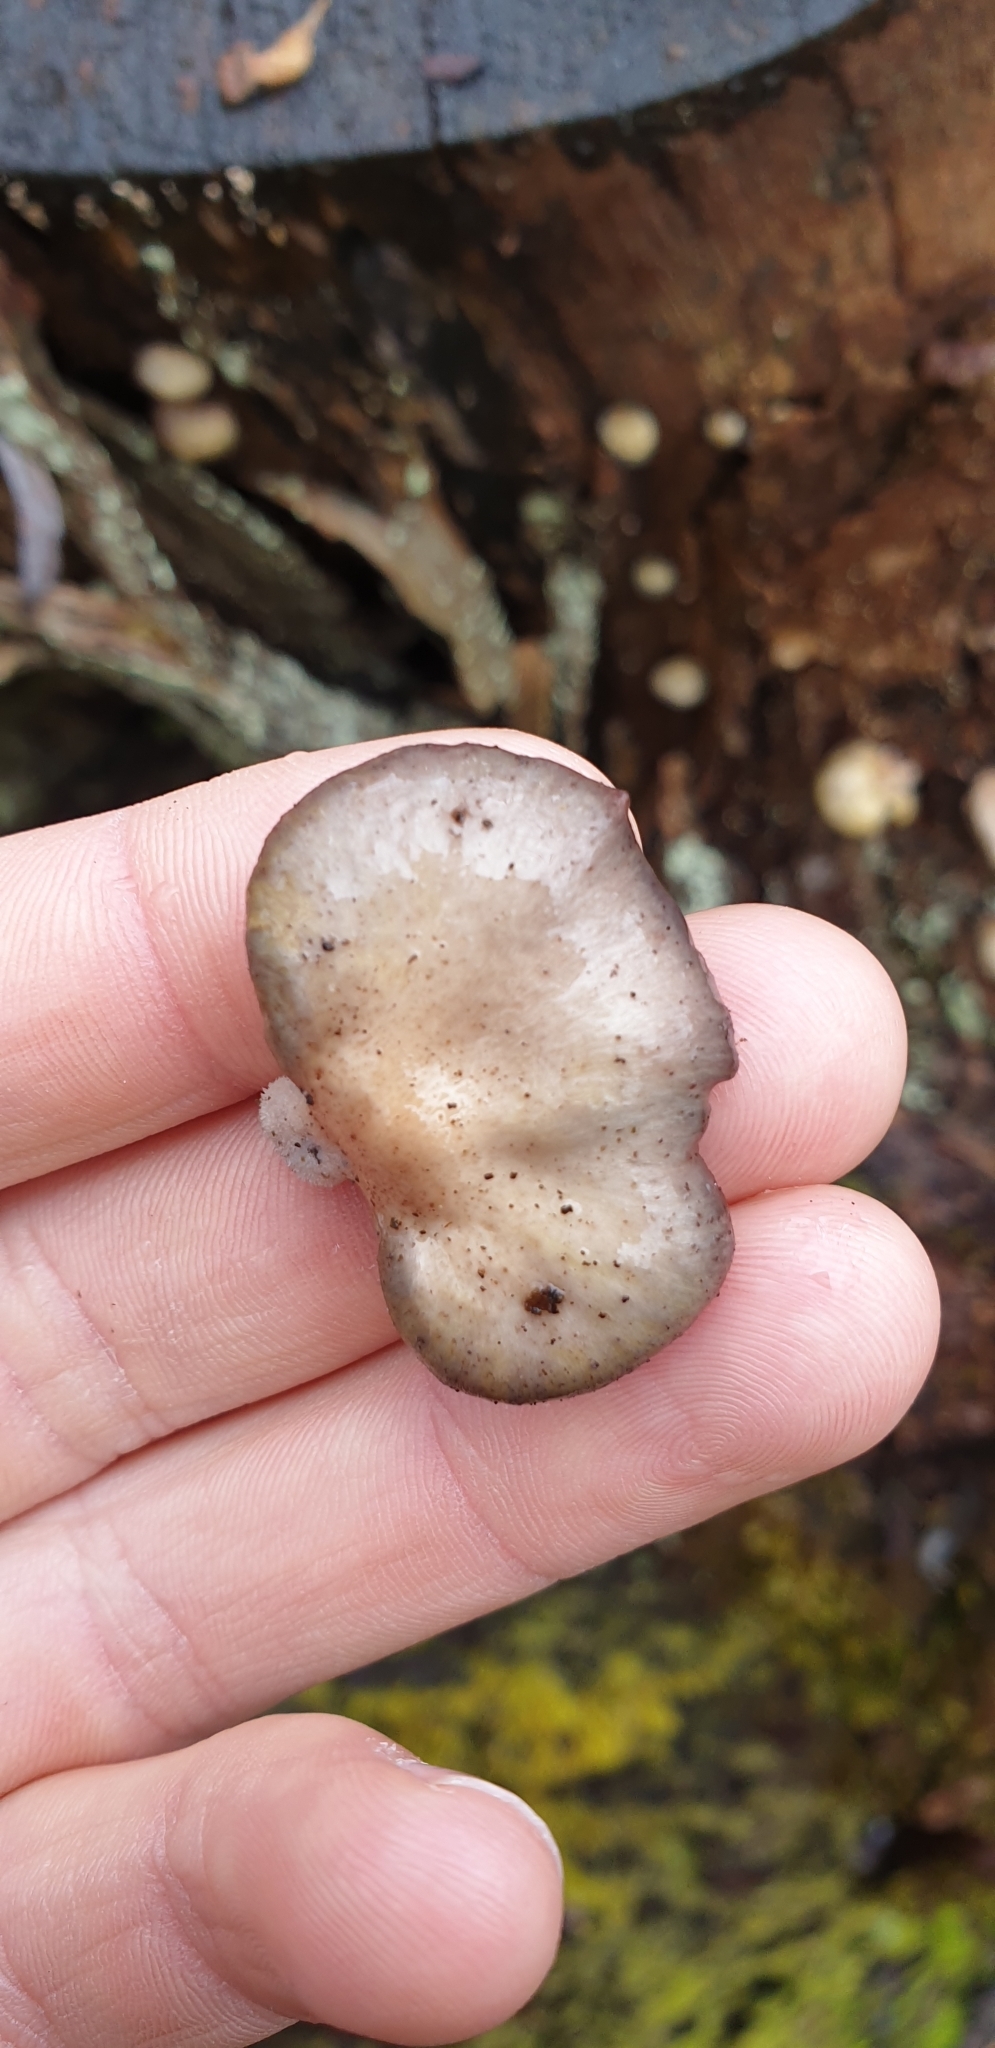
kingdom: Fungi
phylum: Basidiomycota
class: Agaricomycetes
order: Agaricales
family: Mycenaceae
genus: Panellus
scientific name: Panellus longinquus
